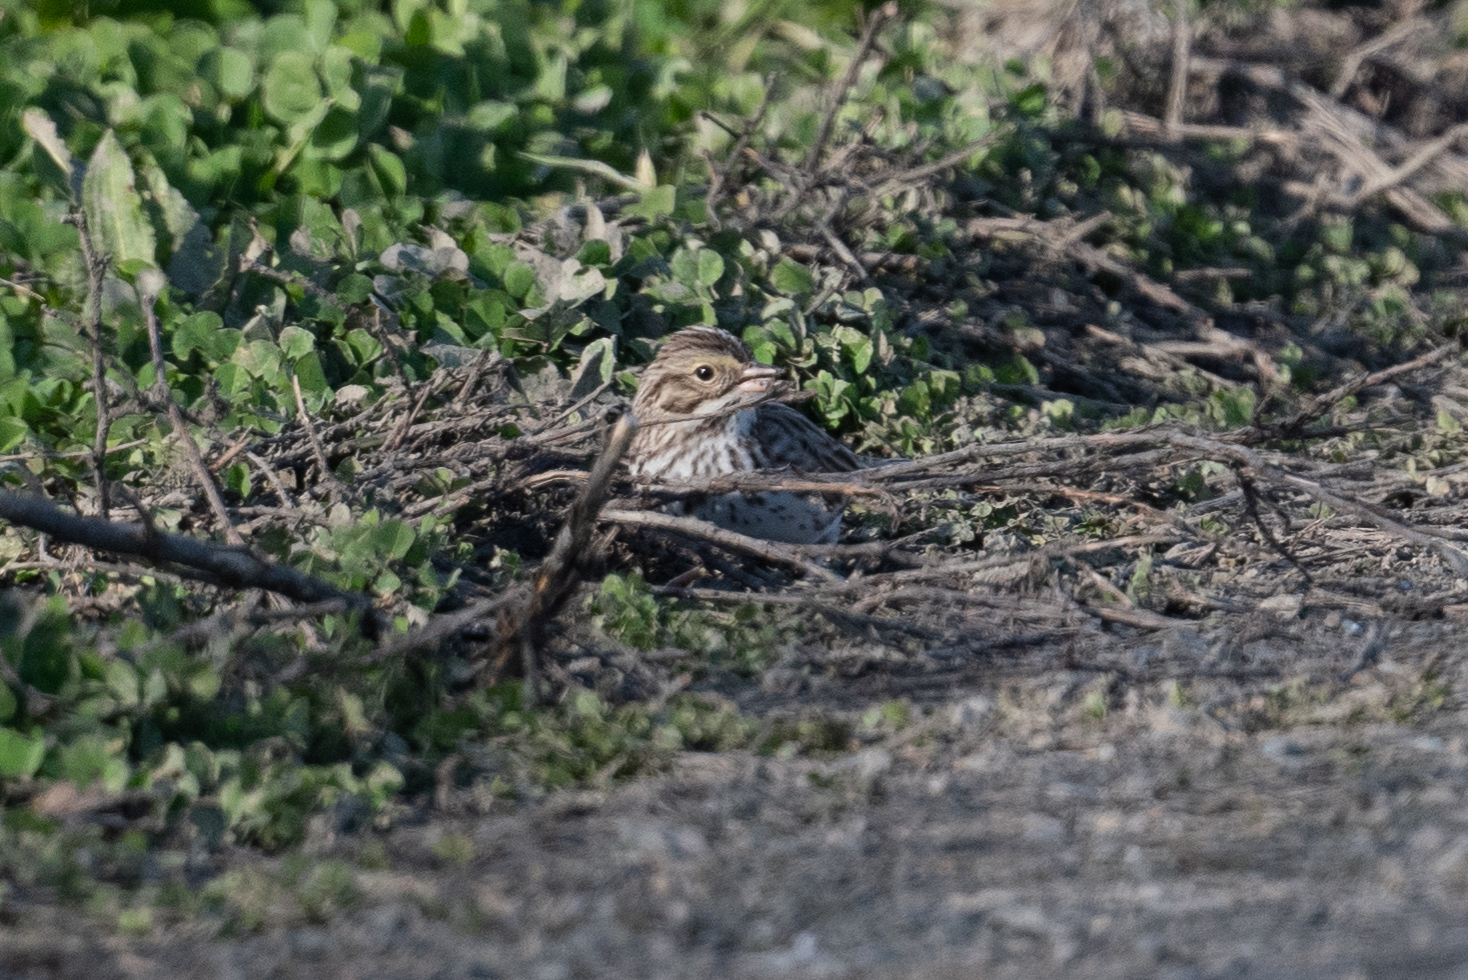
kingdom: Animalia
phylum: Chordata
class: Aves
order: Passeriformes
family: Passerellidae
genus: Passerculus
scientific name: Passerculus sandwichensis
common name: Savannah sparrow
